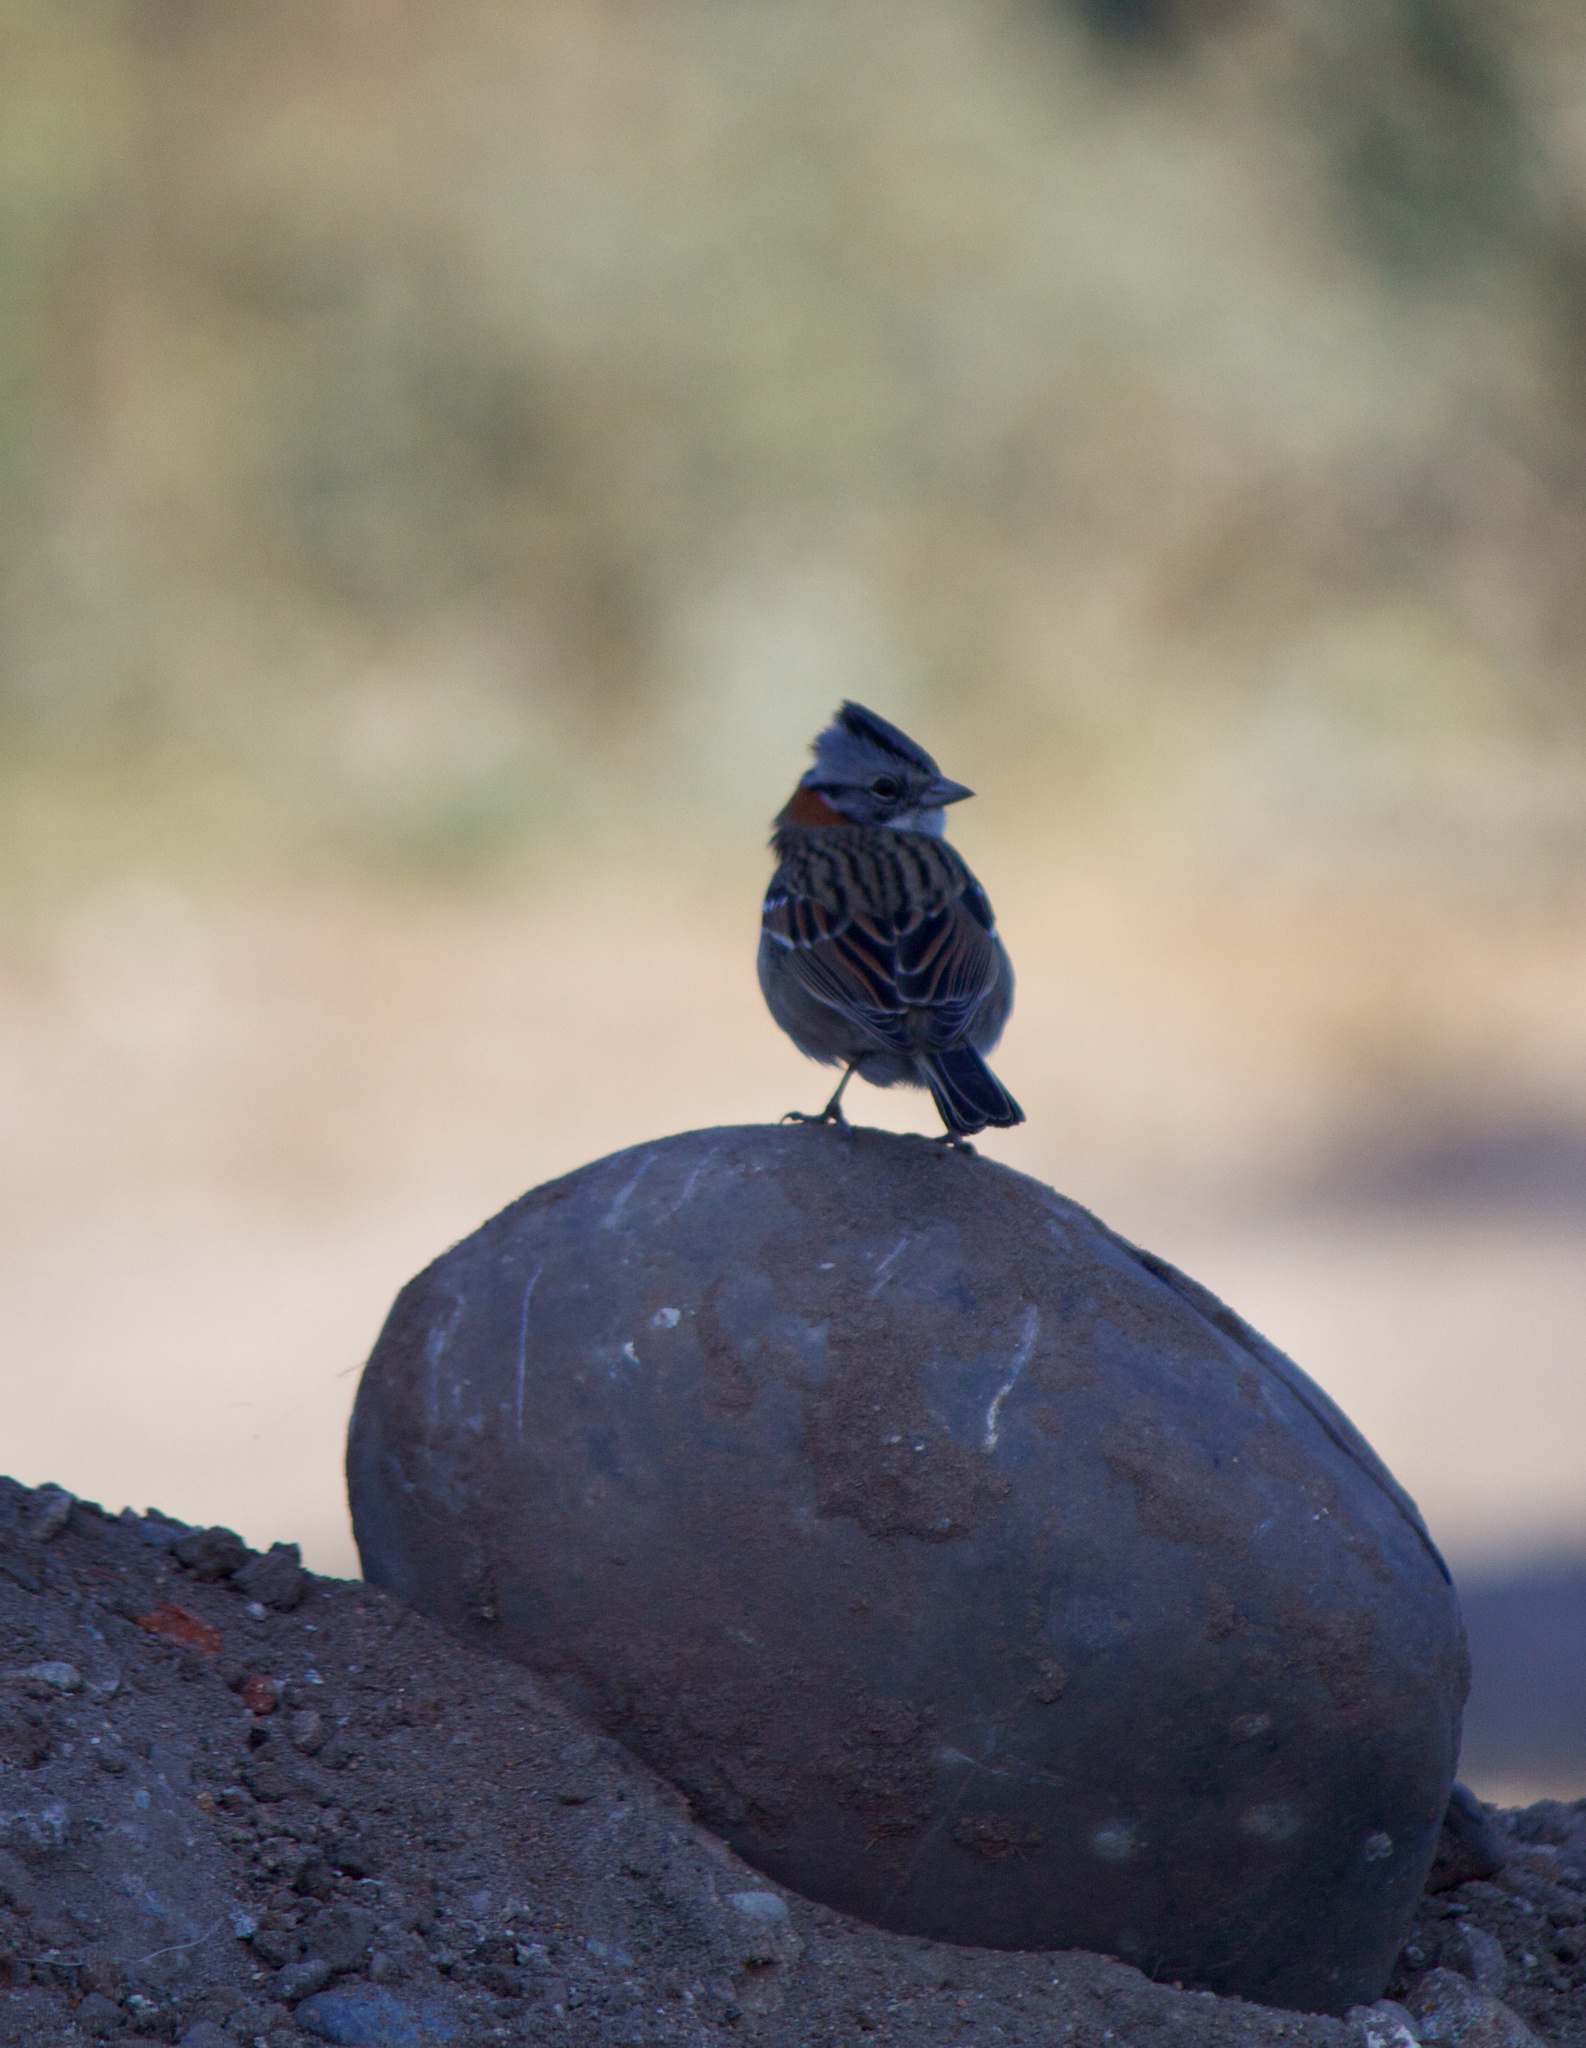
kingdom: Animalia
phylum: Chordata
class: Aves
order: Passeriformes
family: Passerellidae
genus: Zonotrichia
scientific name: Zonotrichia capensis
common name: Rufous-collared sparrow
